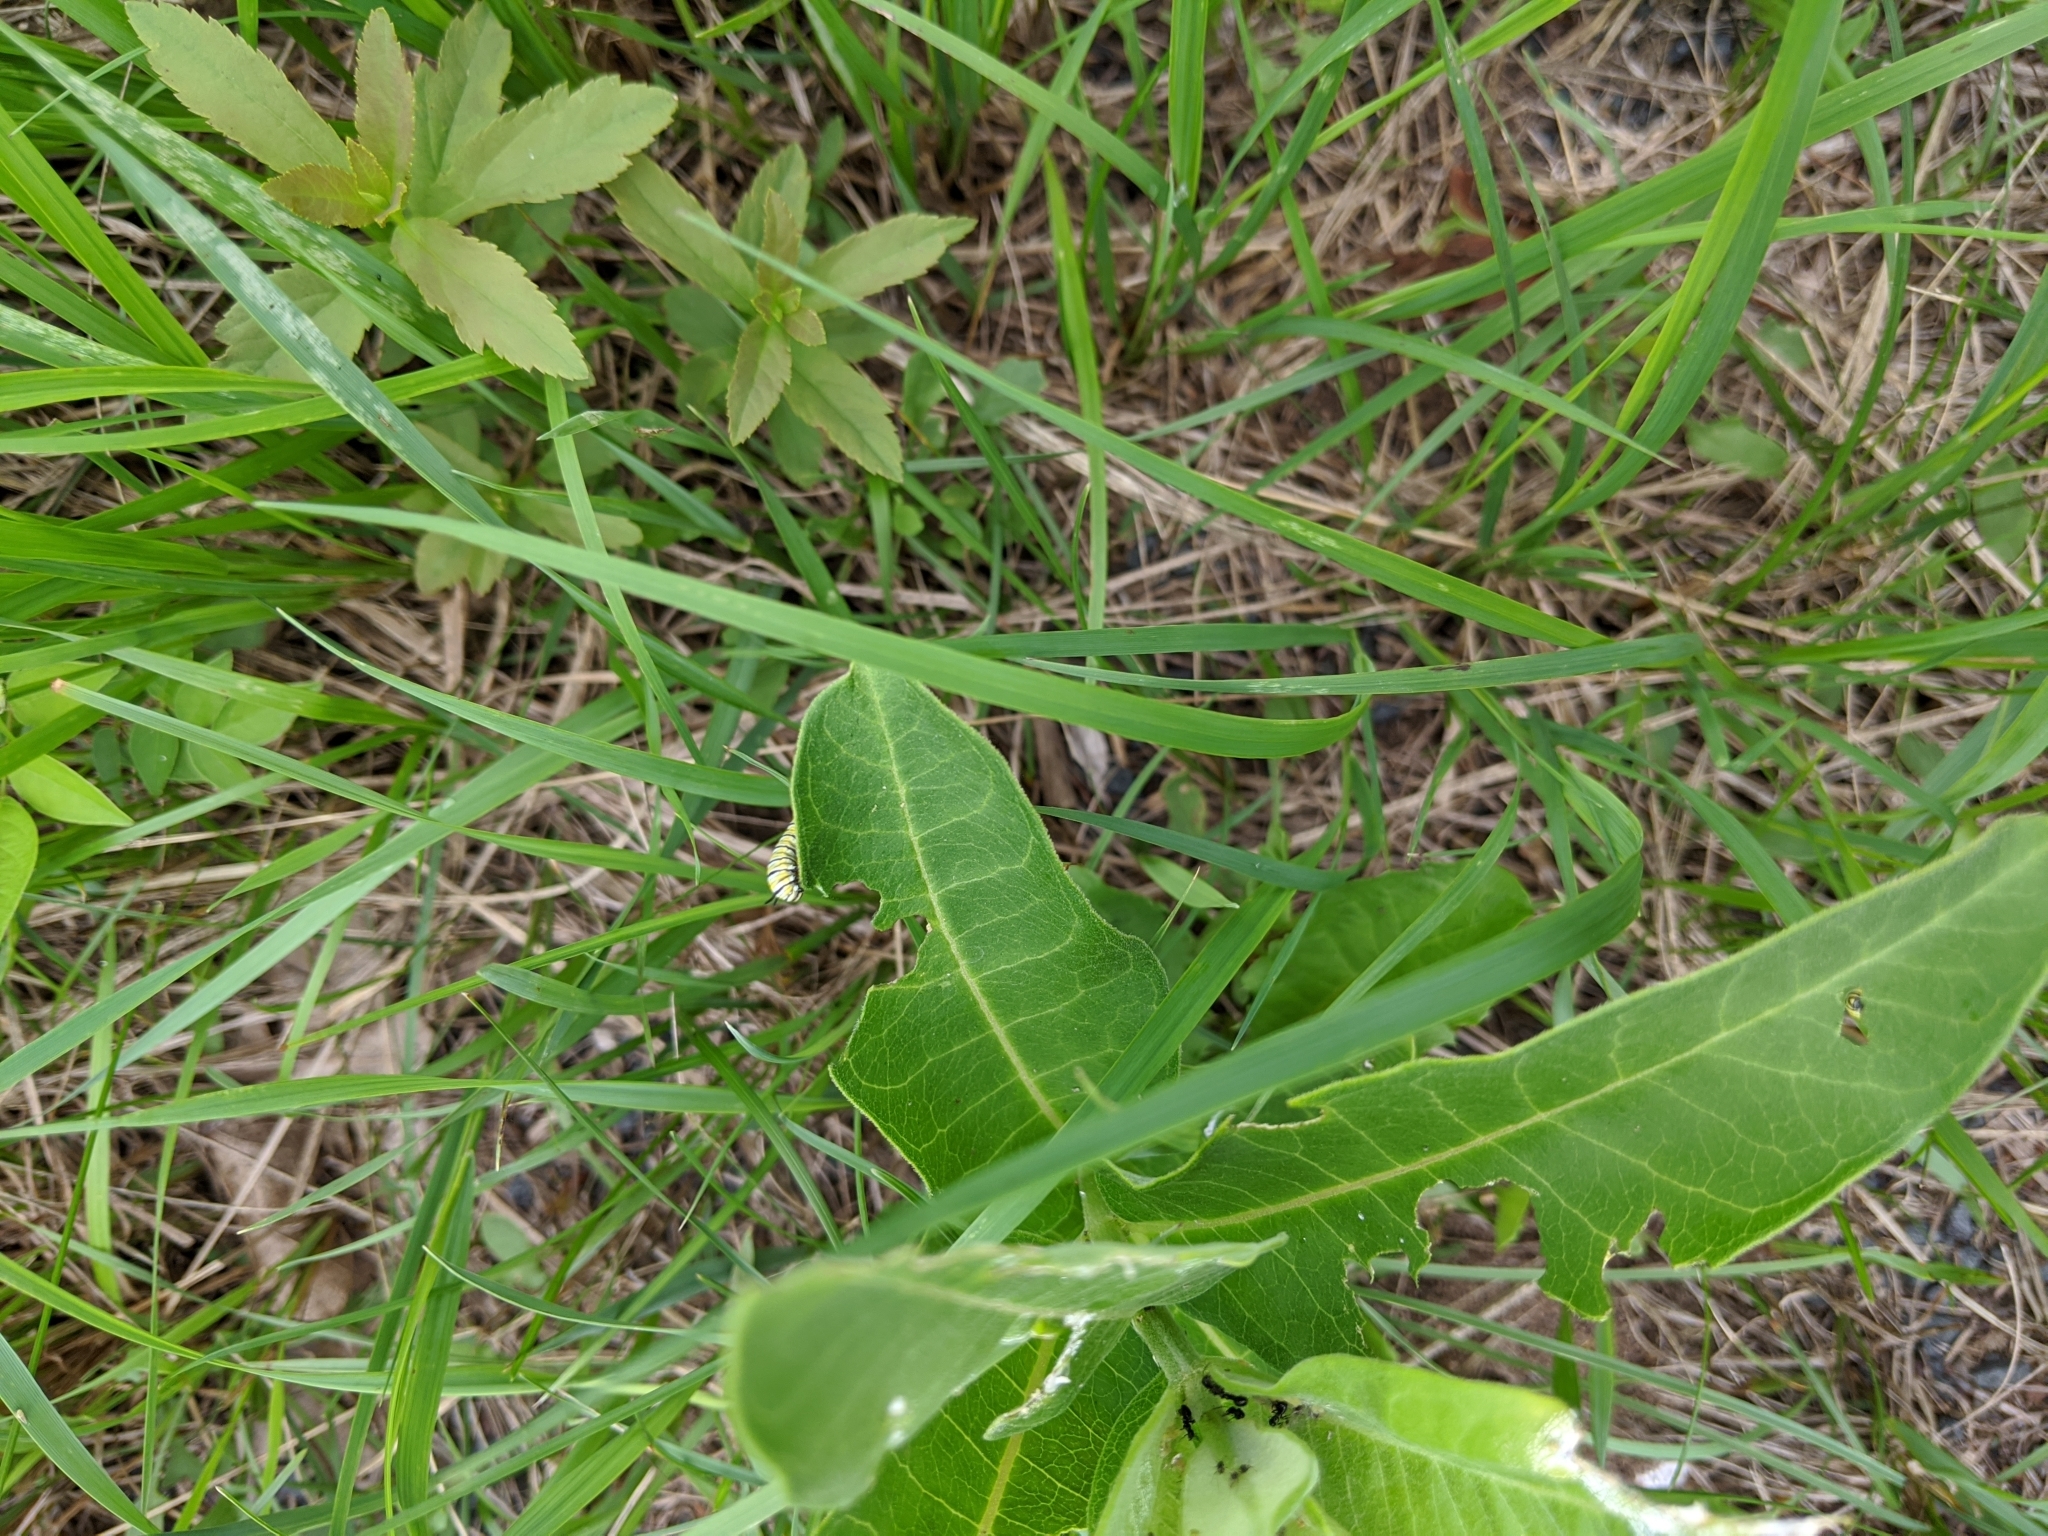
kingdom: Animalia
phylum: Arthropoda
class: Insecta
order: Lepidoptera
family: Nymphalidae
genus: Danaus
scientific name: Danaus plexippus
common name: Monarch
